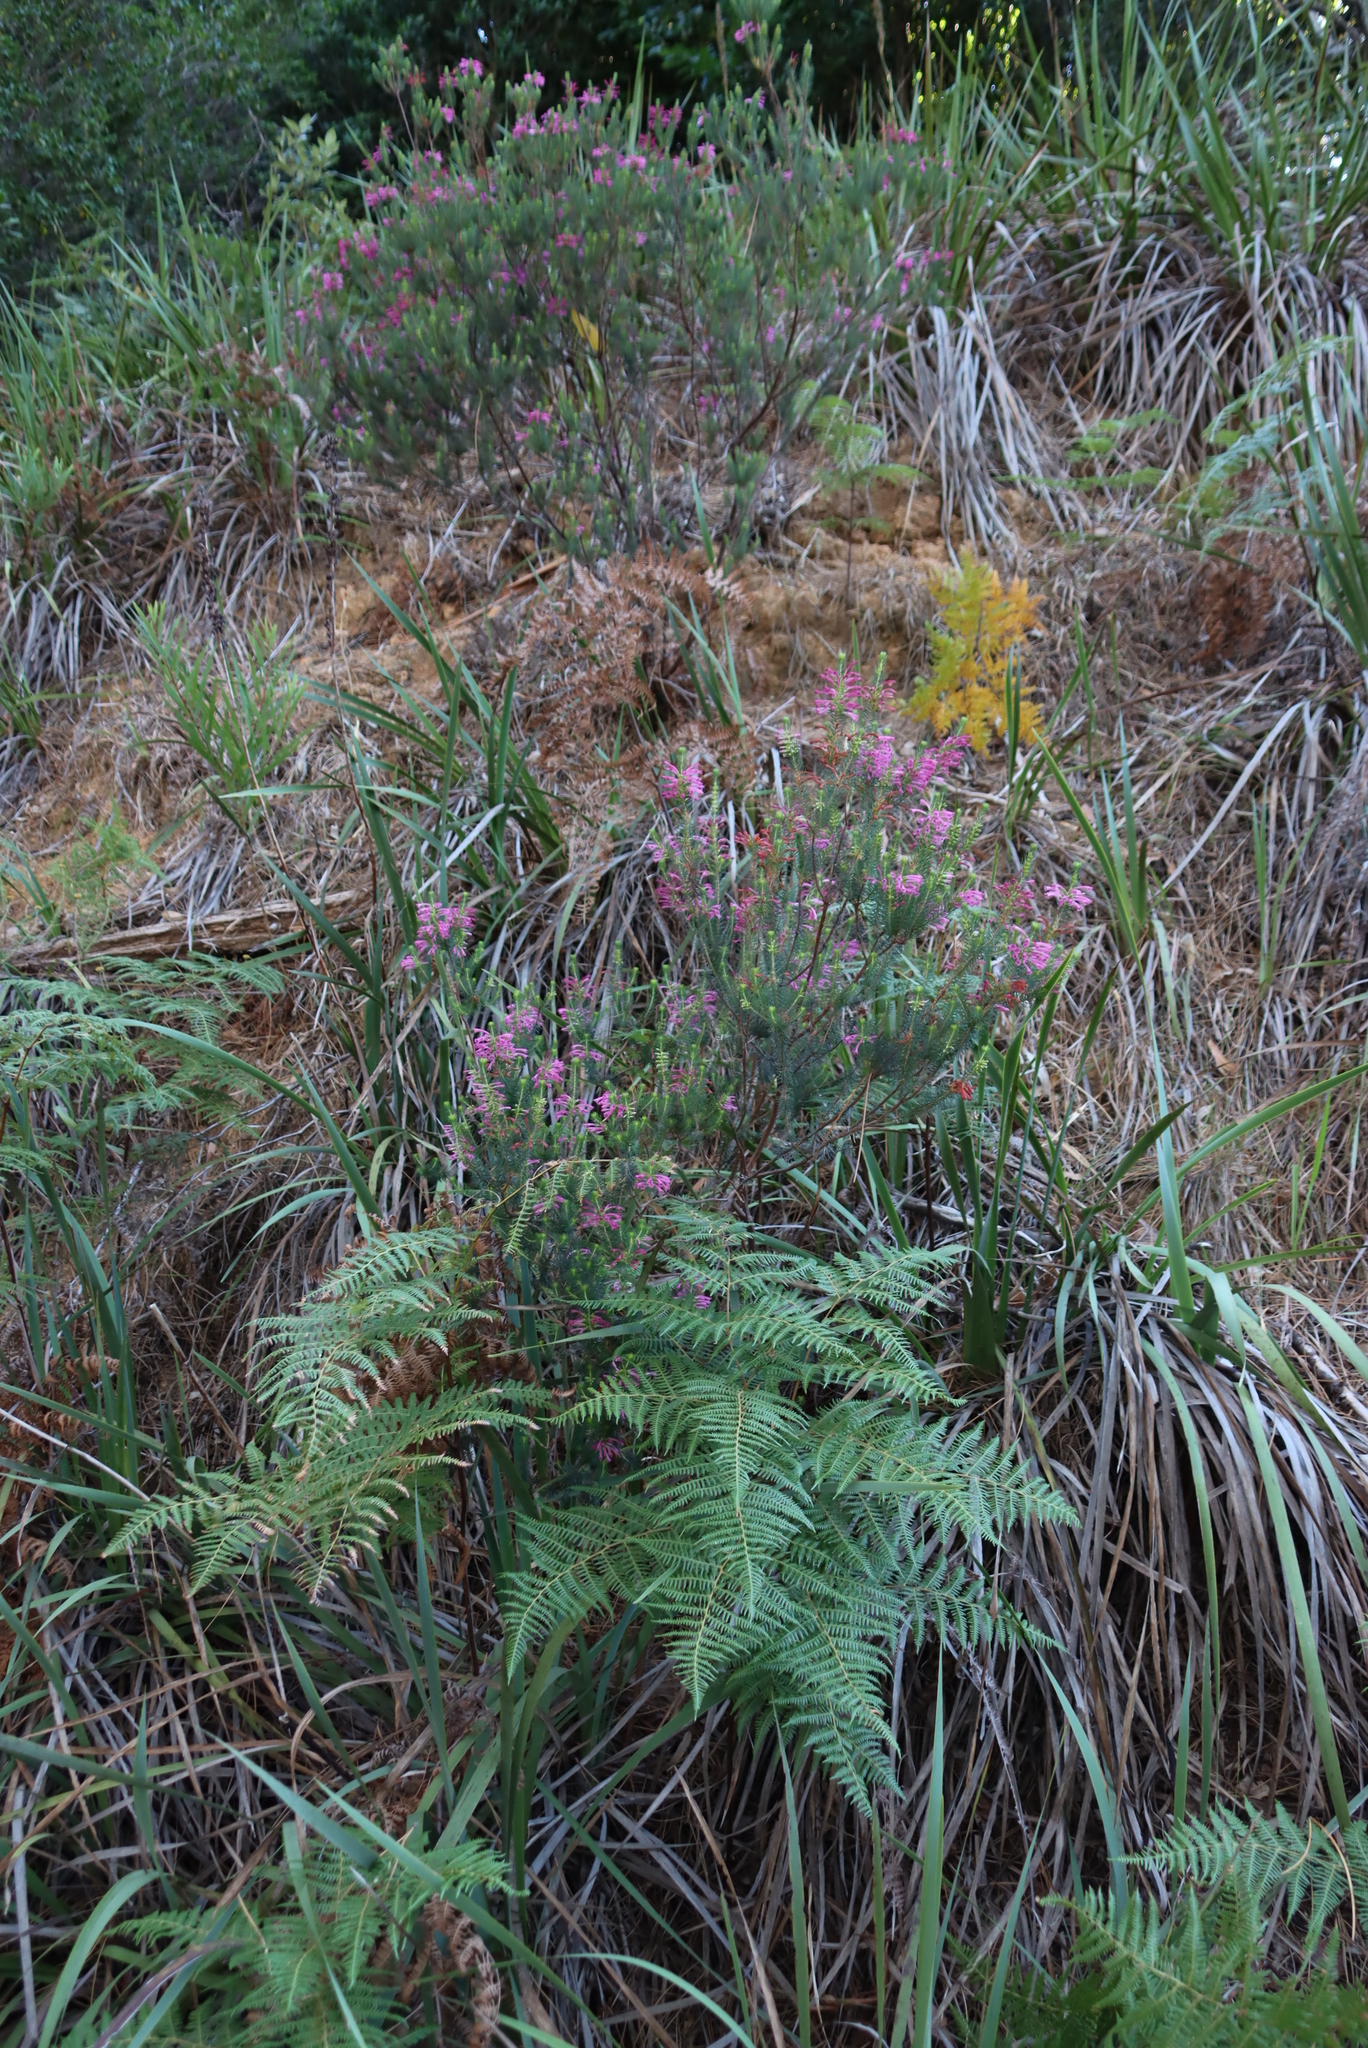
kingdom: Plantae
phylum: Tracheophyta
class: Polypodiopsida
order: Polypodiales
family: Dennstaedtiaceae
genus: Pteridium
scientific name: Pteridium aquilinum
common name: Bracken
